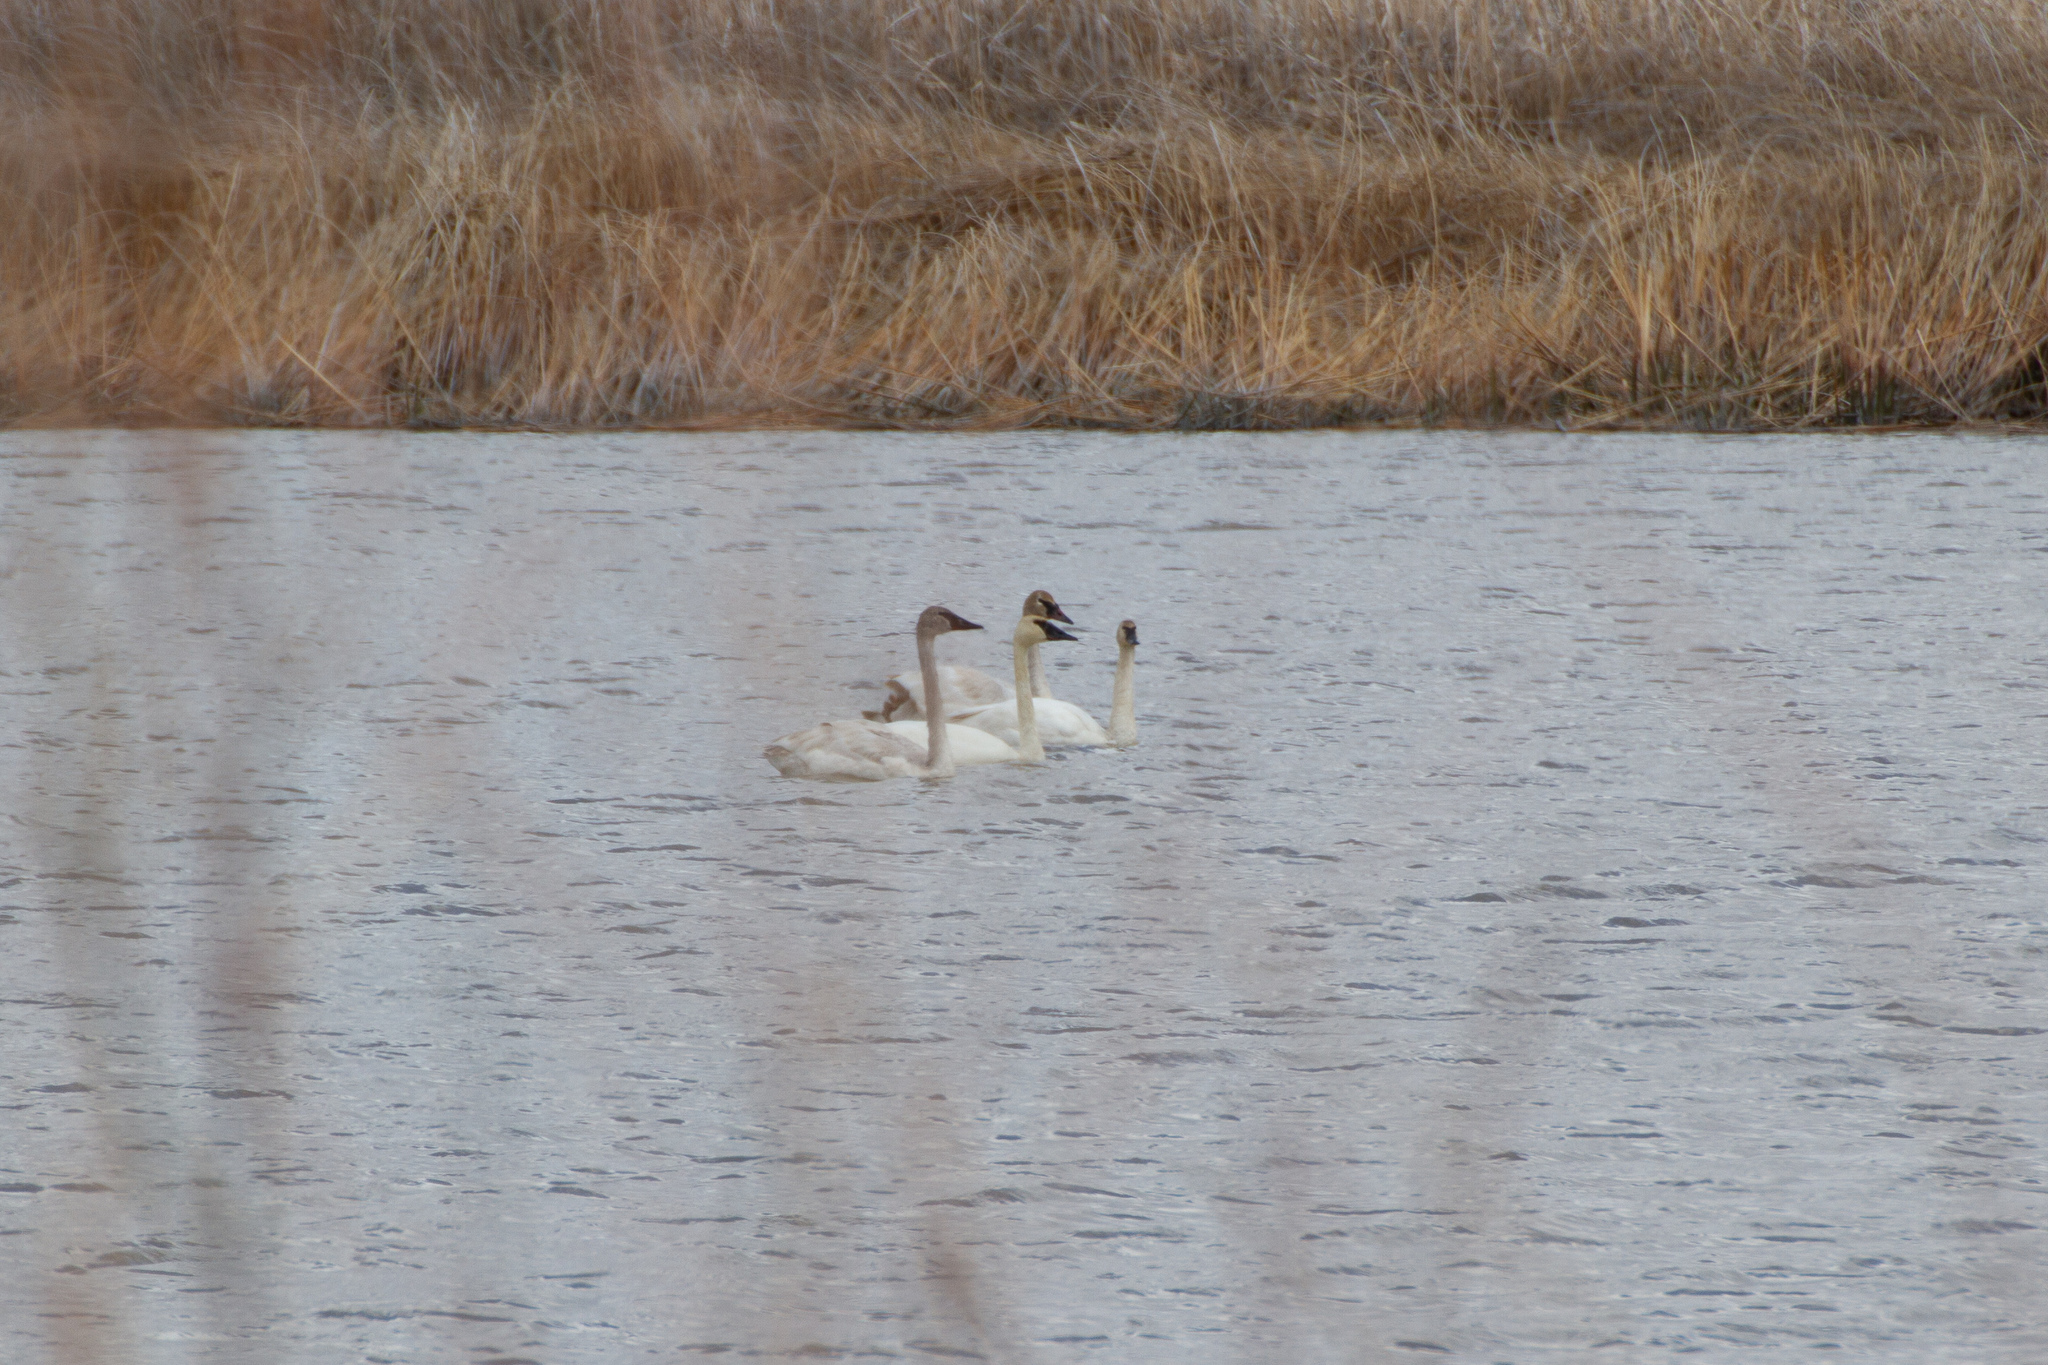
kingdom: Animalia
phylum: Chordata
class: Aves
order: Anseriformes
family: Anatidae
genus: Cygnus
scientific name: Cygnus buccinator
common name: Trumpeter swan
